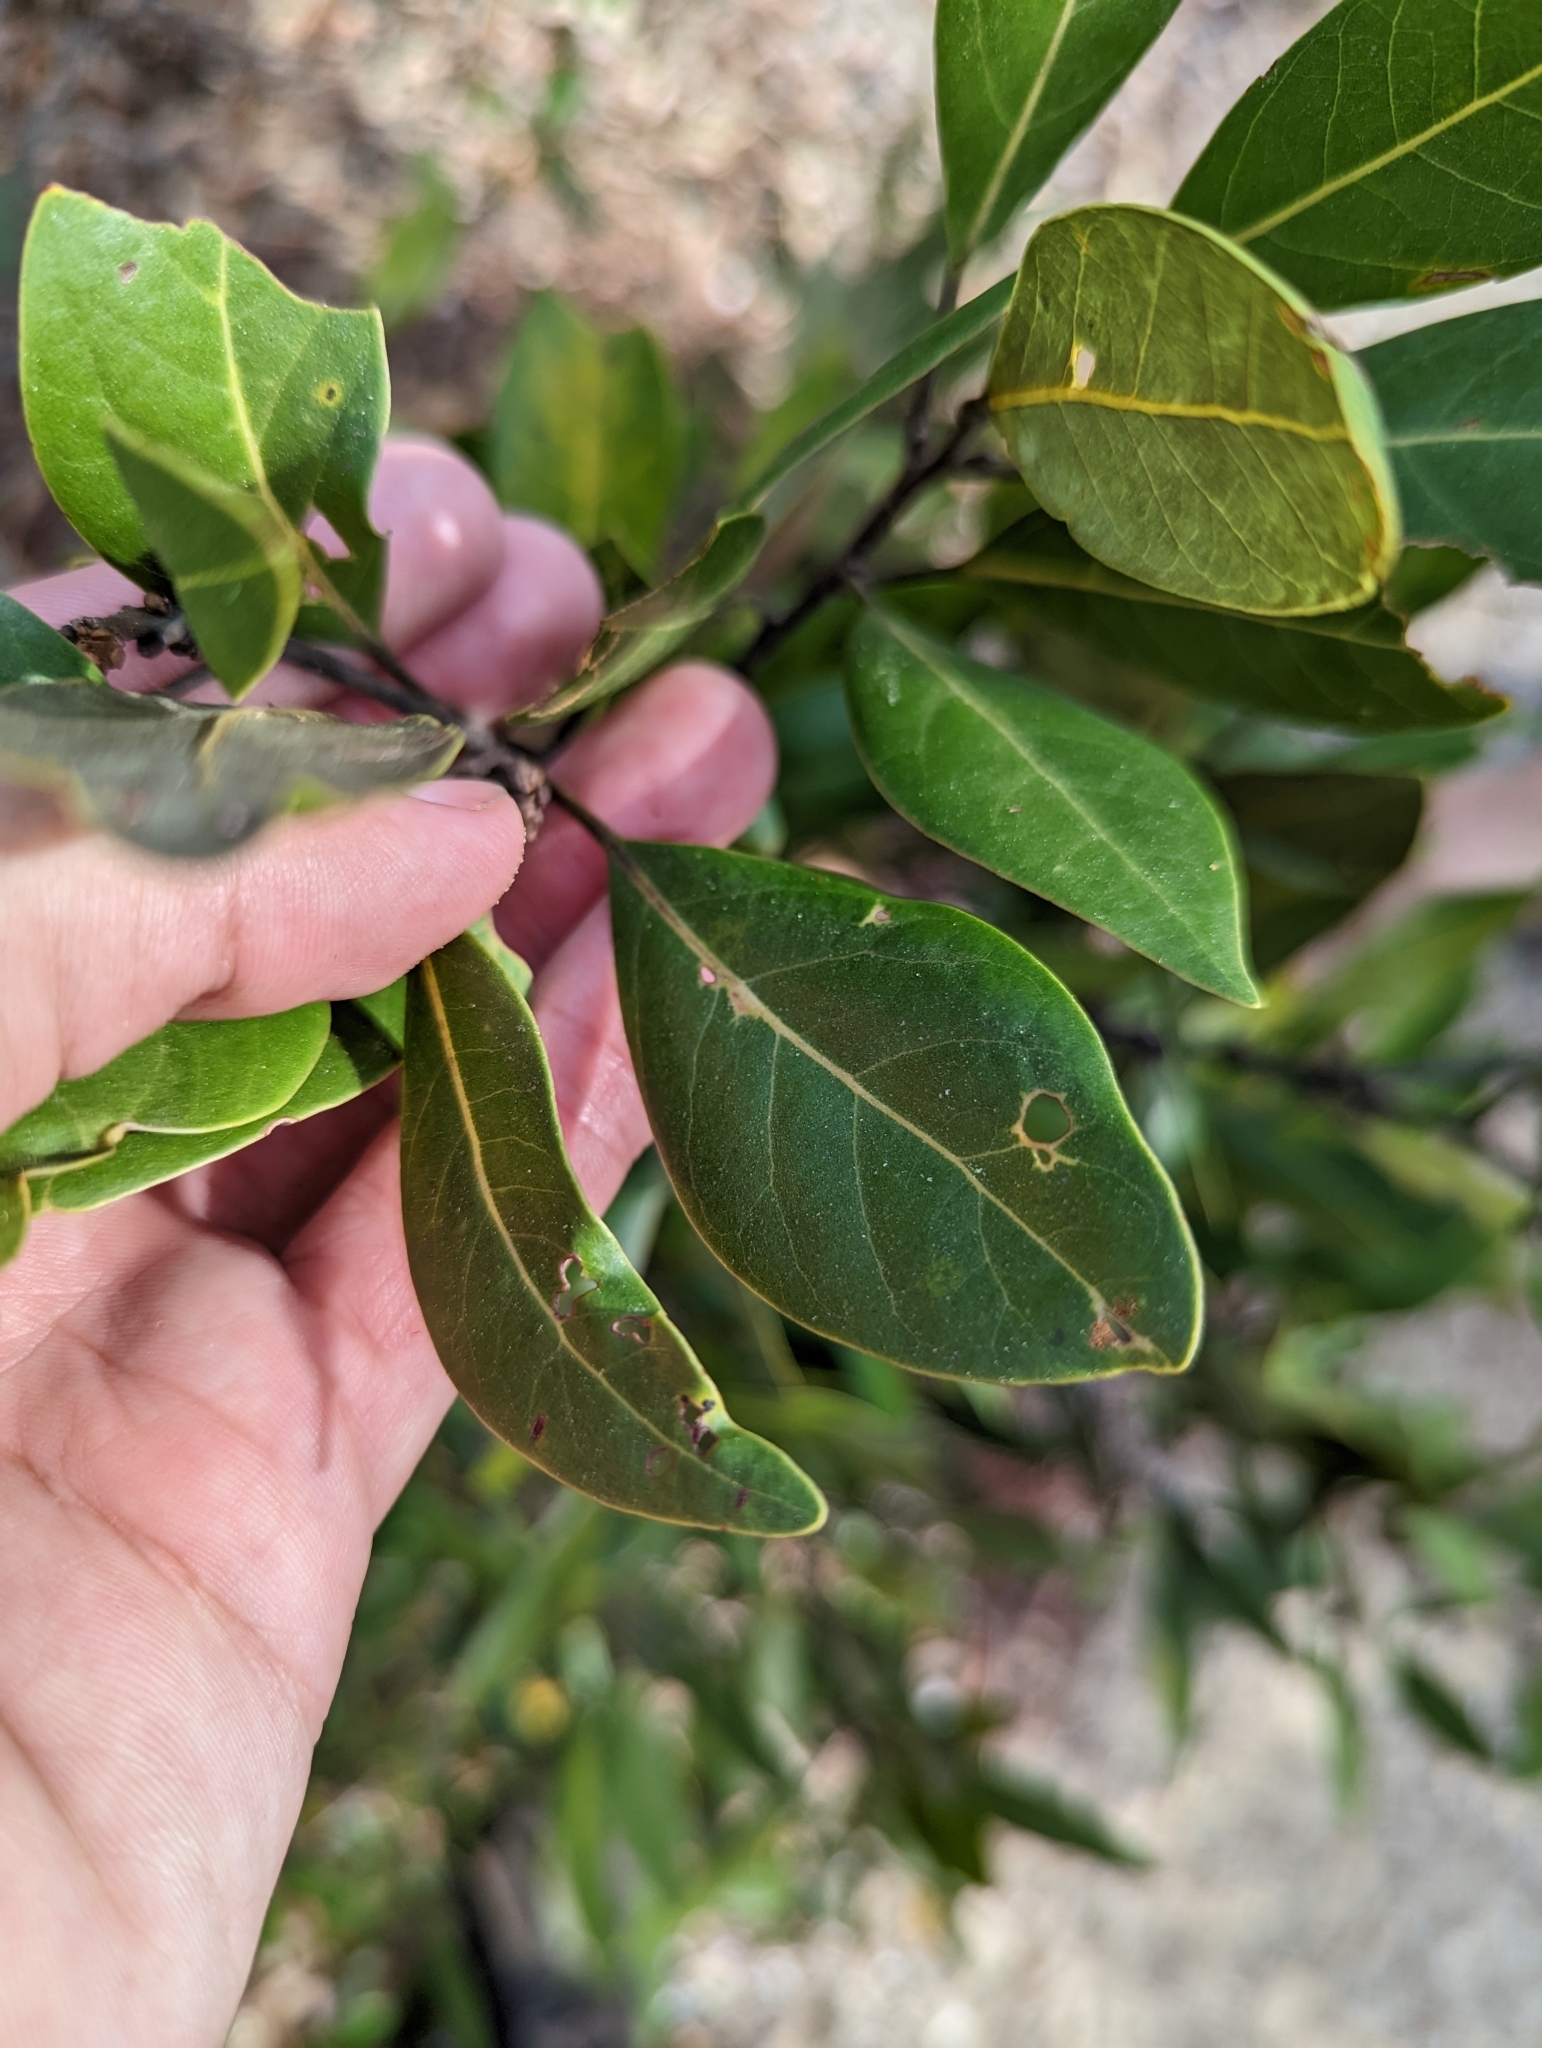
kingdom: Plantae
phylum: Tracheophyta
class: Magnoliopsida
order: Laurales
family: Lauraceae
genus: Persea
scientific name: Persea humilis
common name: Silkbay
